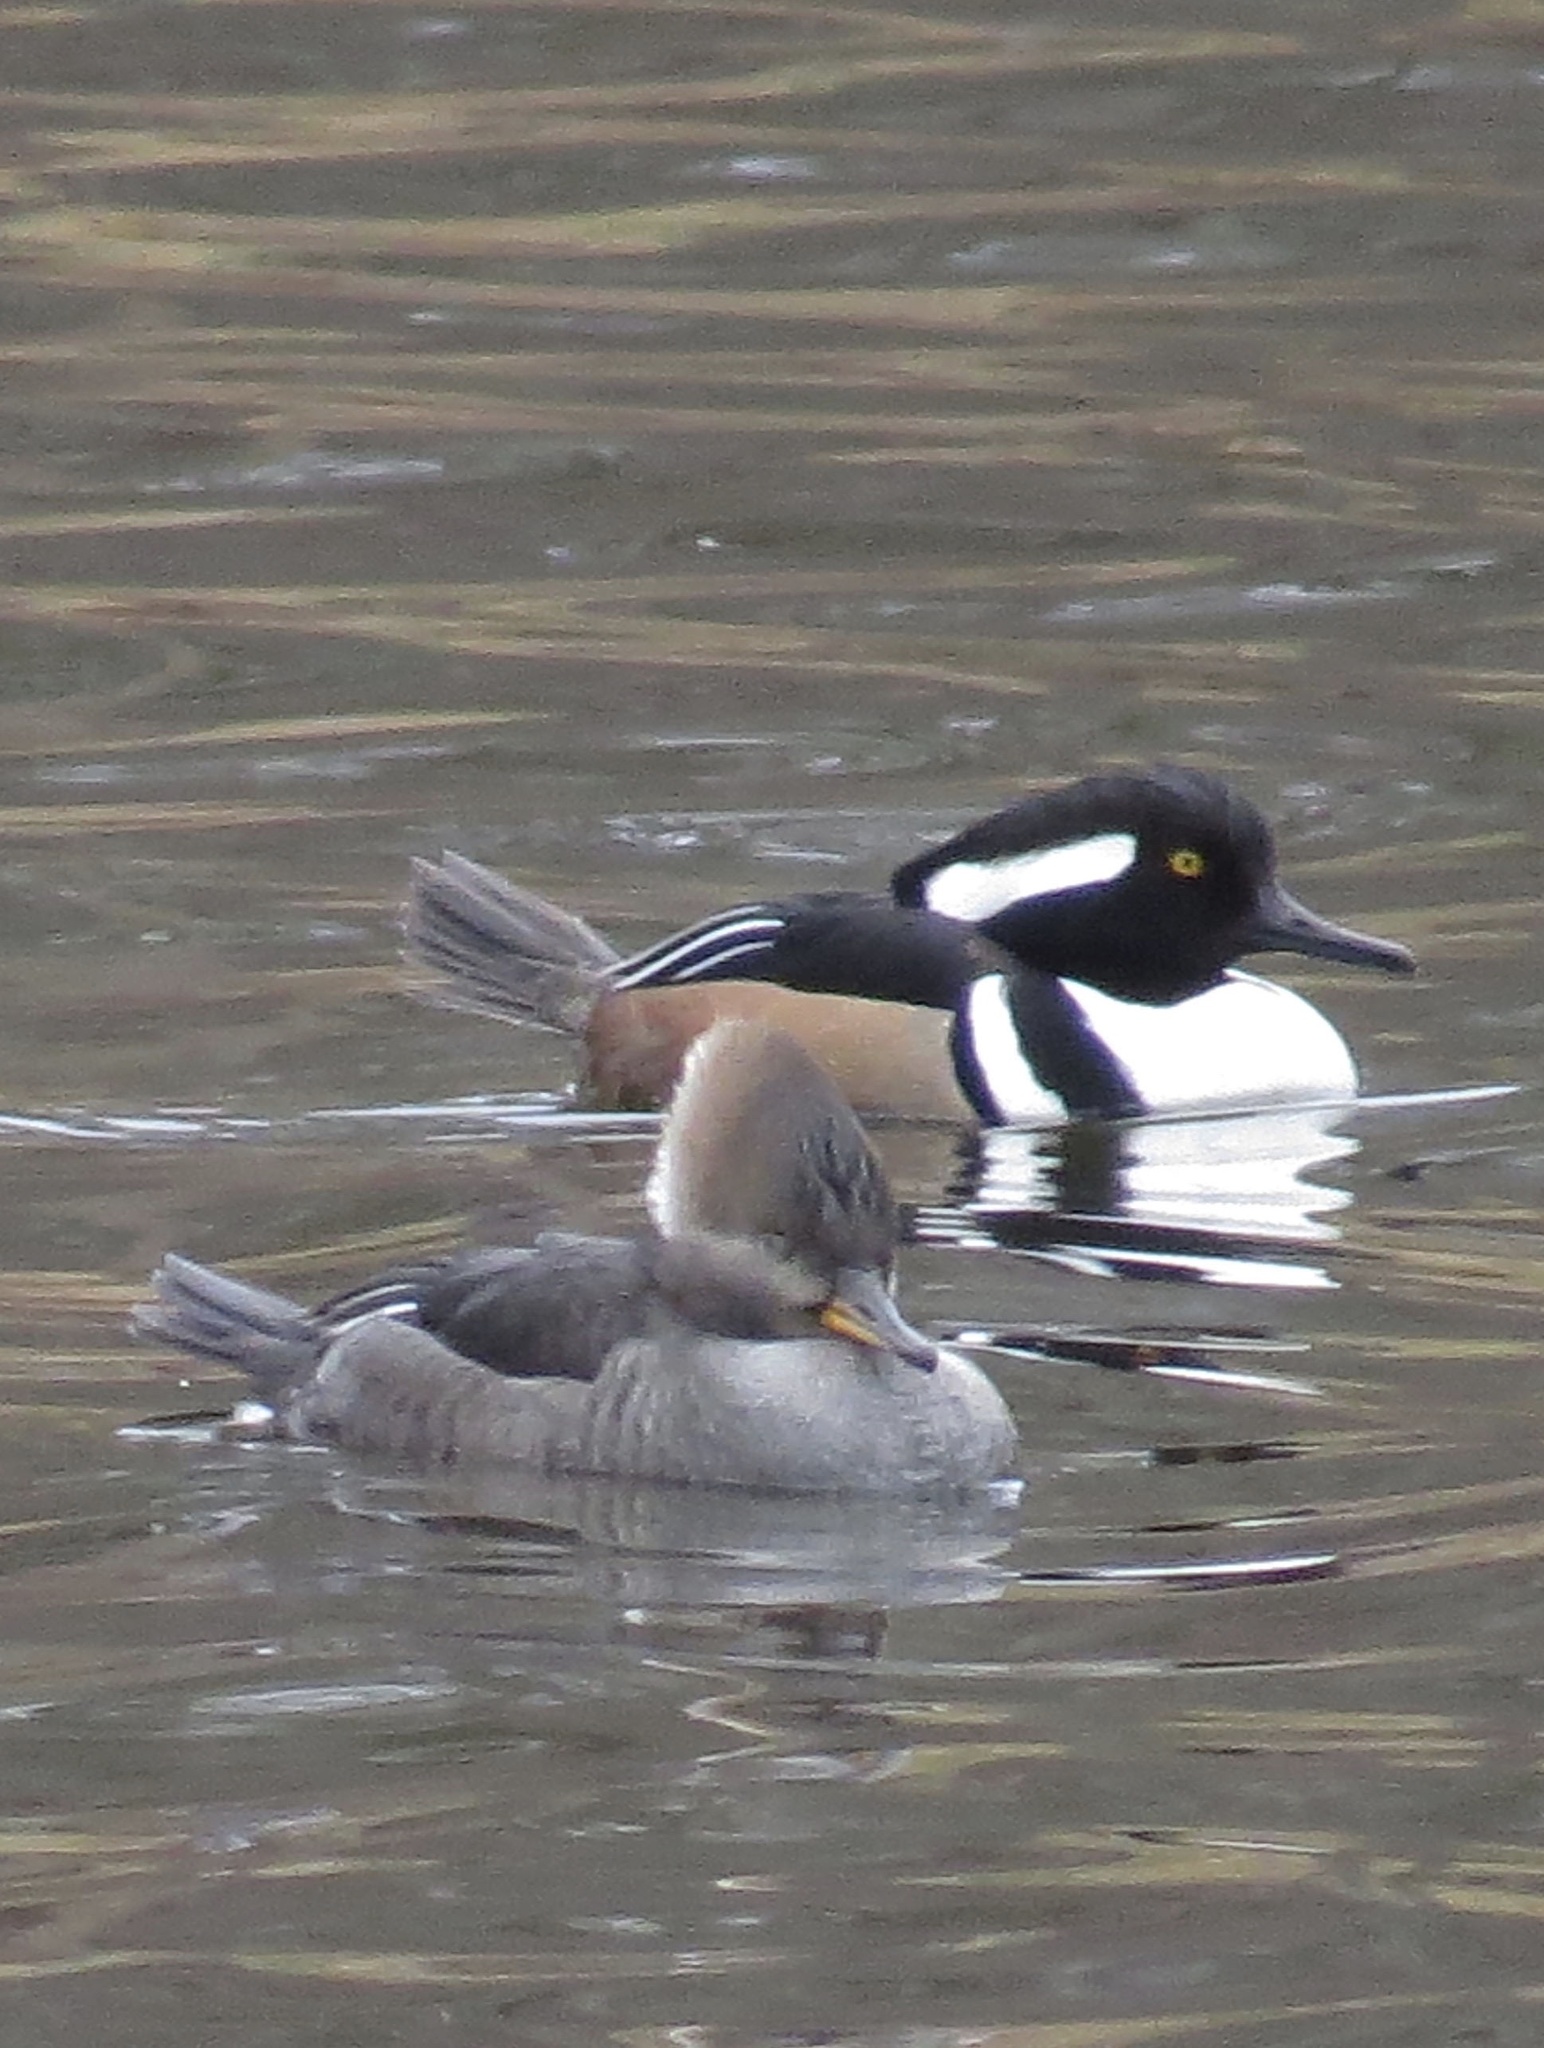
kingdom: Animalia
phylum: Chordata
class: Aves
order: Anseriformes
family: Anatidae
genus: Lophodytes
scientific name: Lophodytes cucullatus
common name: Hooded merganser
